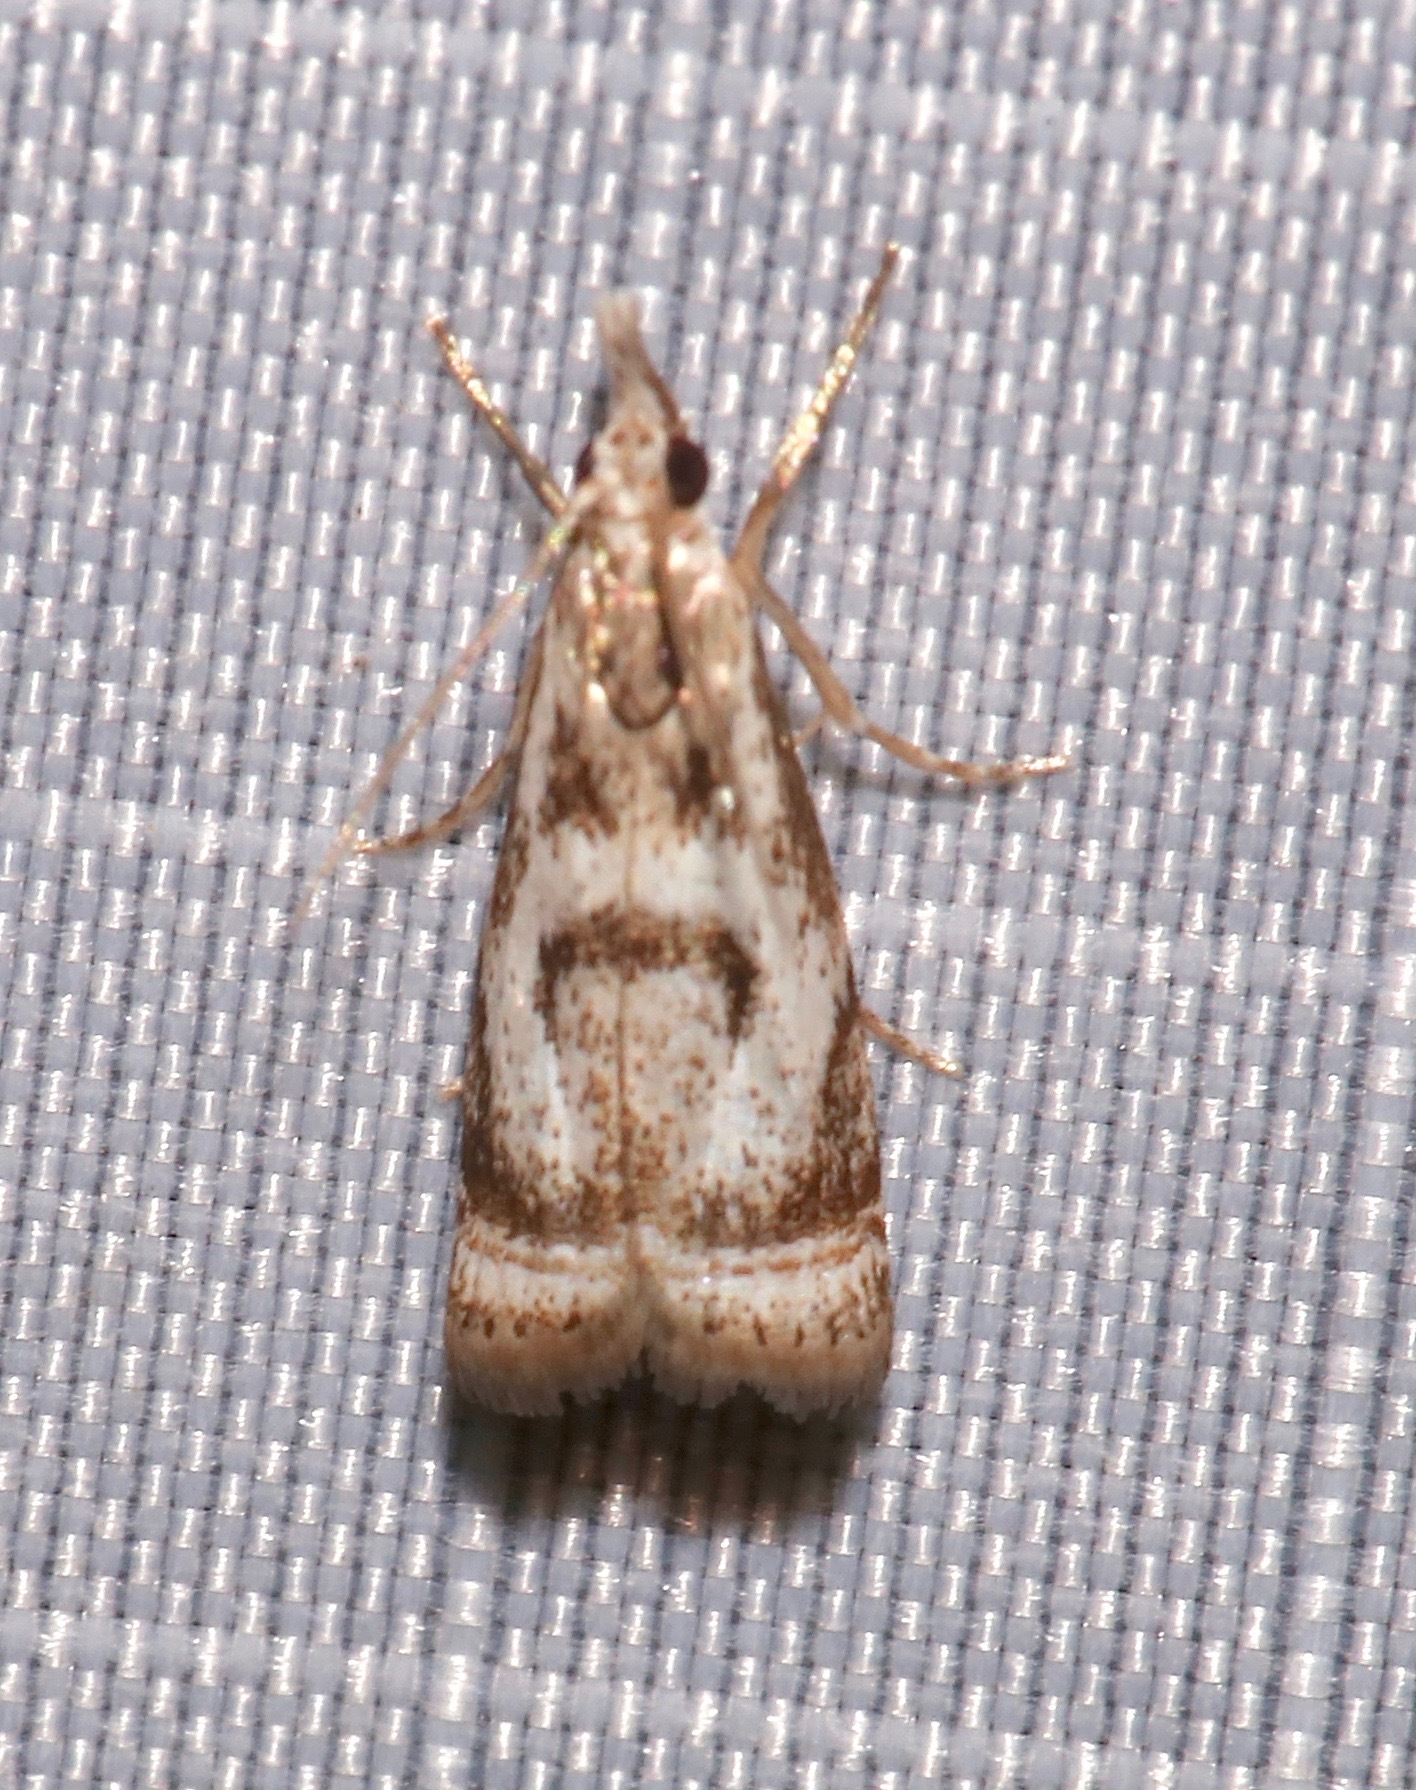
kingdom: Animalia
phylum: Arthropoda
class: Insecta
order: Lepidoptera
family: Crambidae
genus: Microcrambus
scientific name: Microcrambus elegans
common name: Elegant grass-veneer
